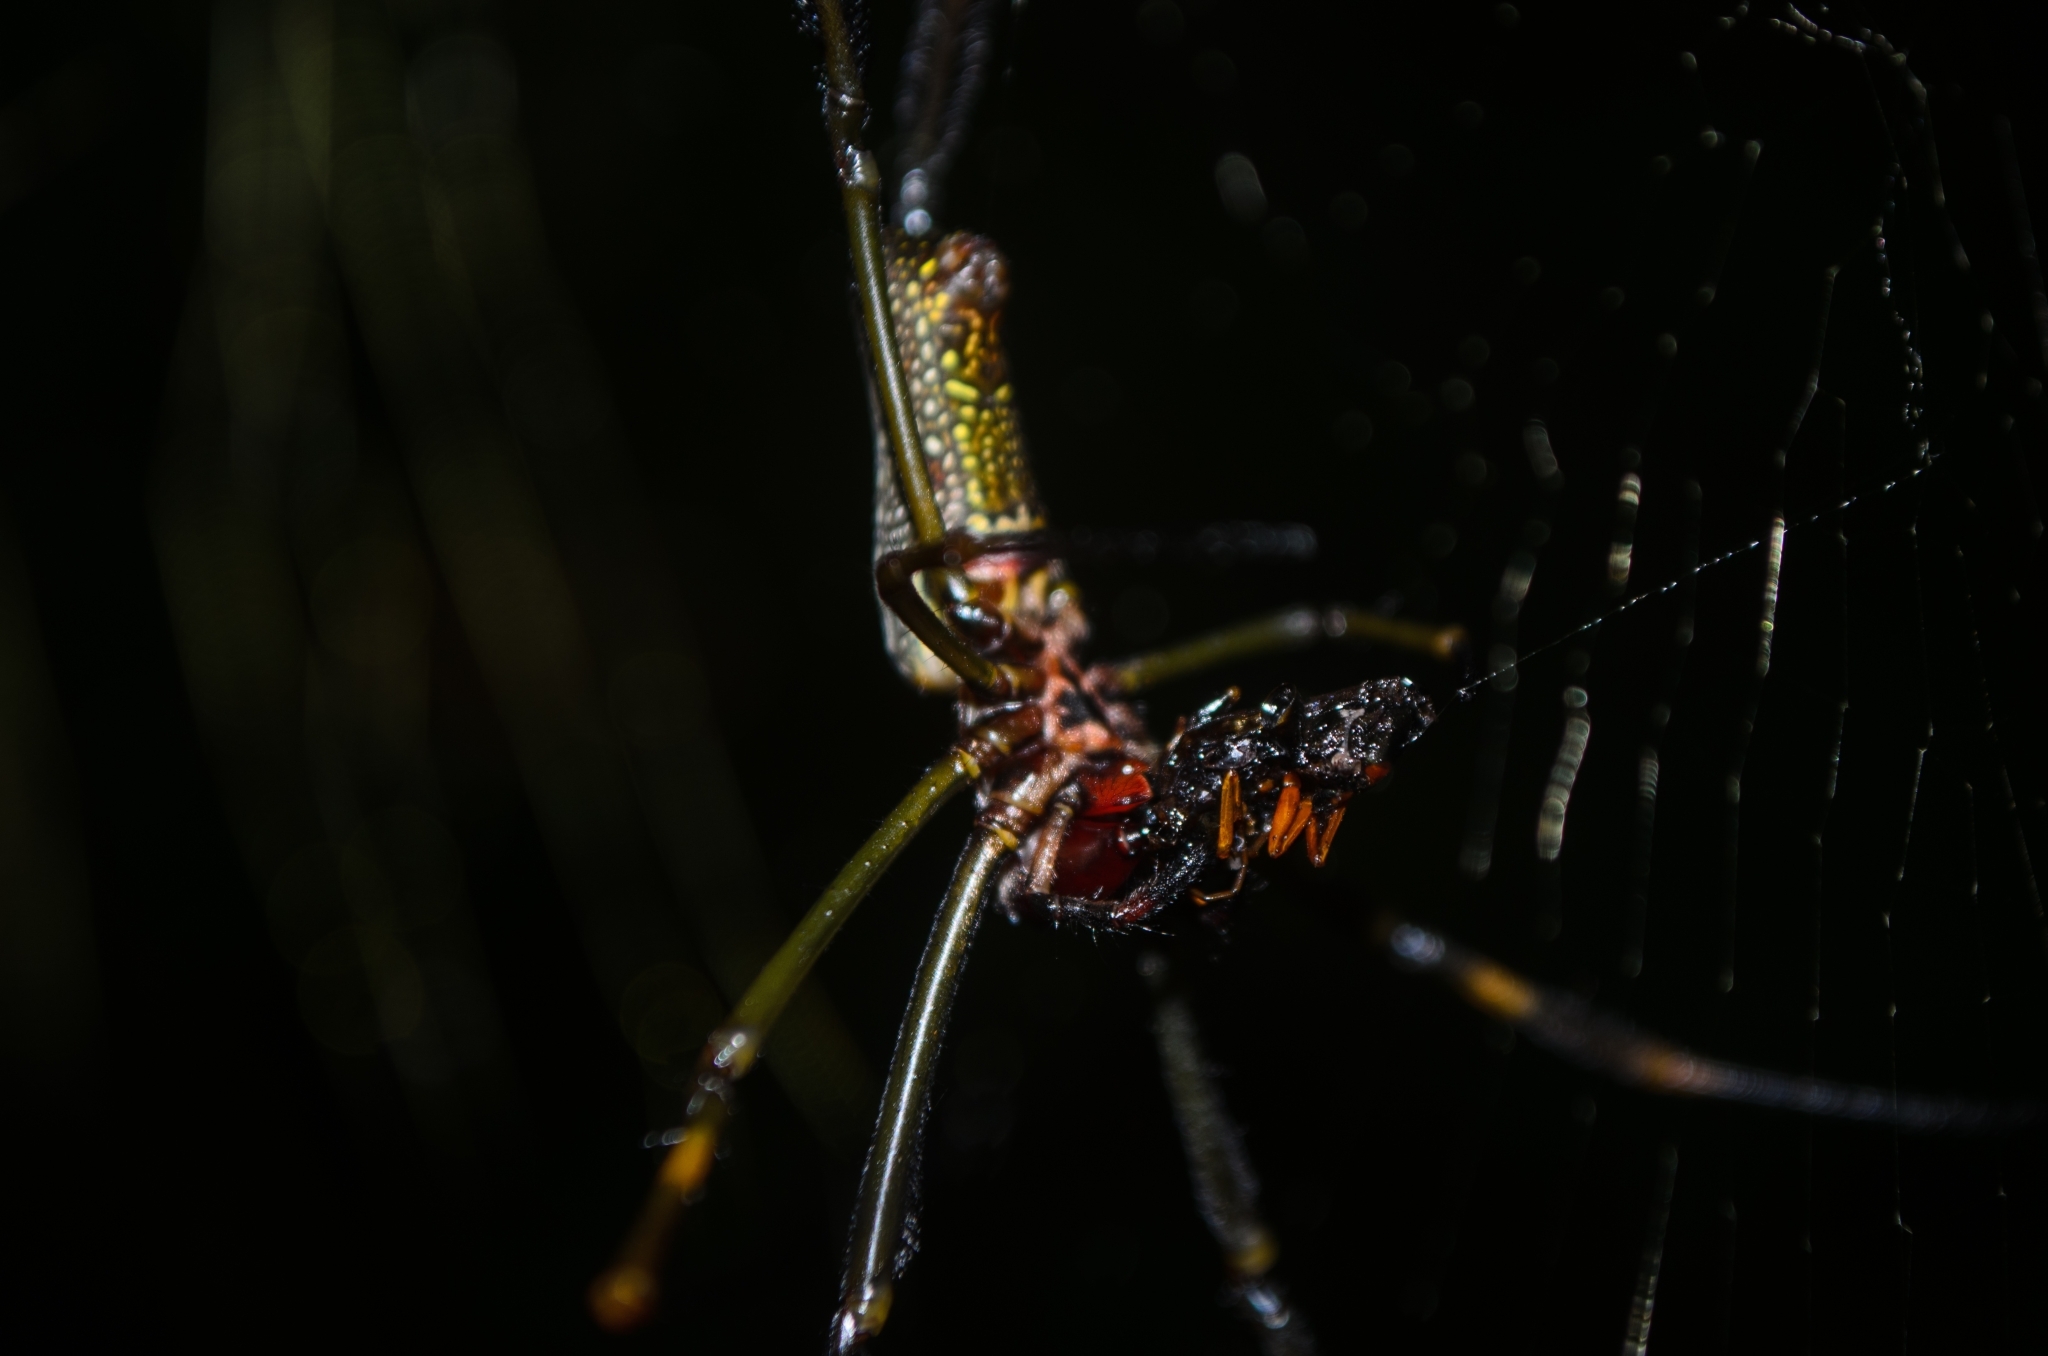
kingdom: Animalia
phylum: Arthropoda
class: Arachnida
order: Araneae
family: Araneidae
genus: Trichonephila
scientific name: Trichonephila clavipes
